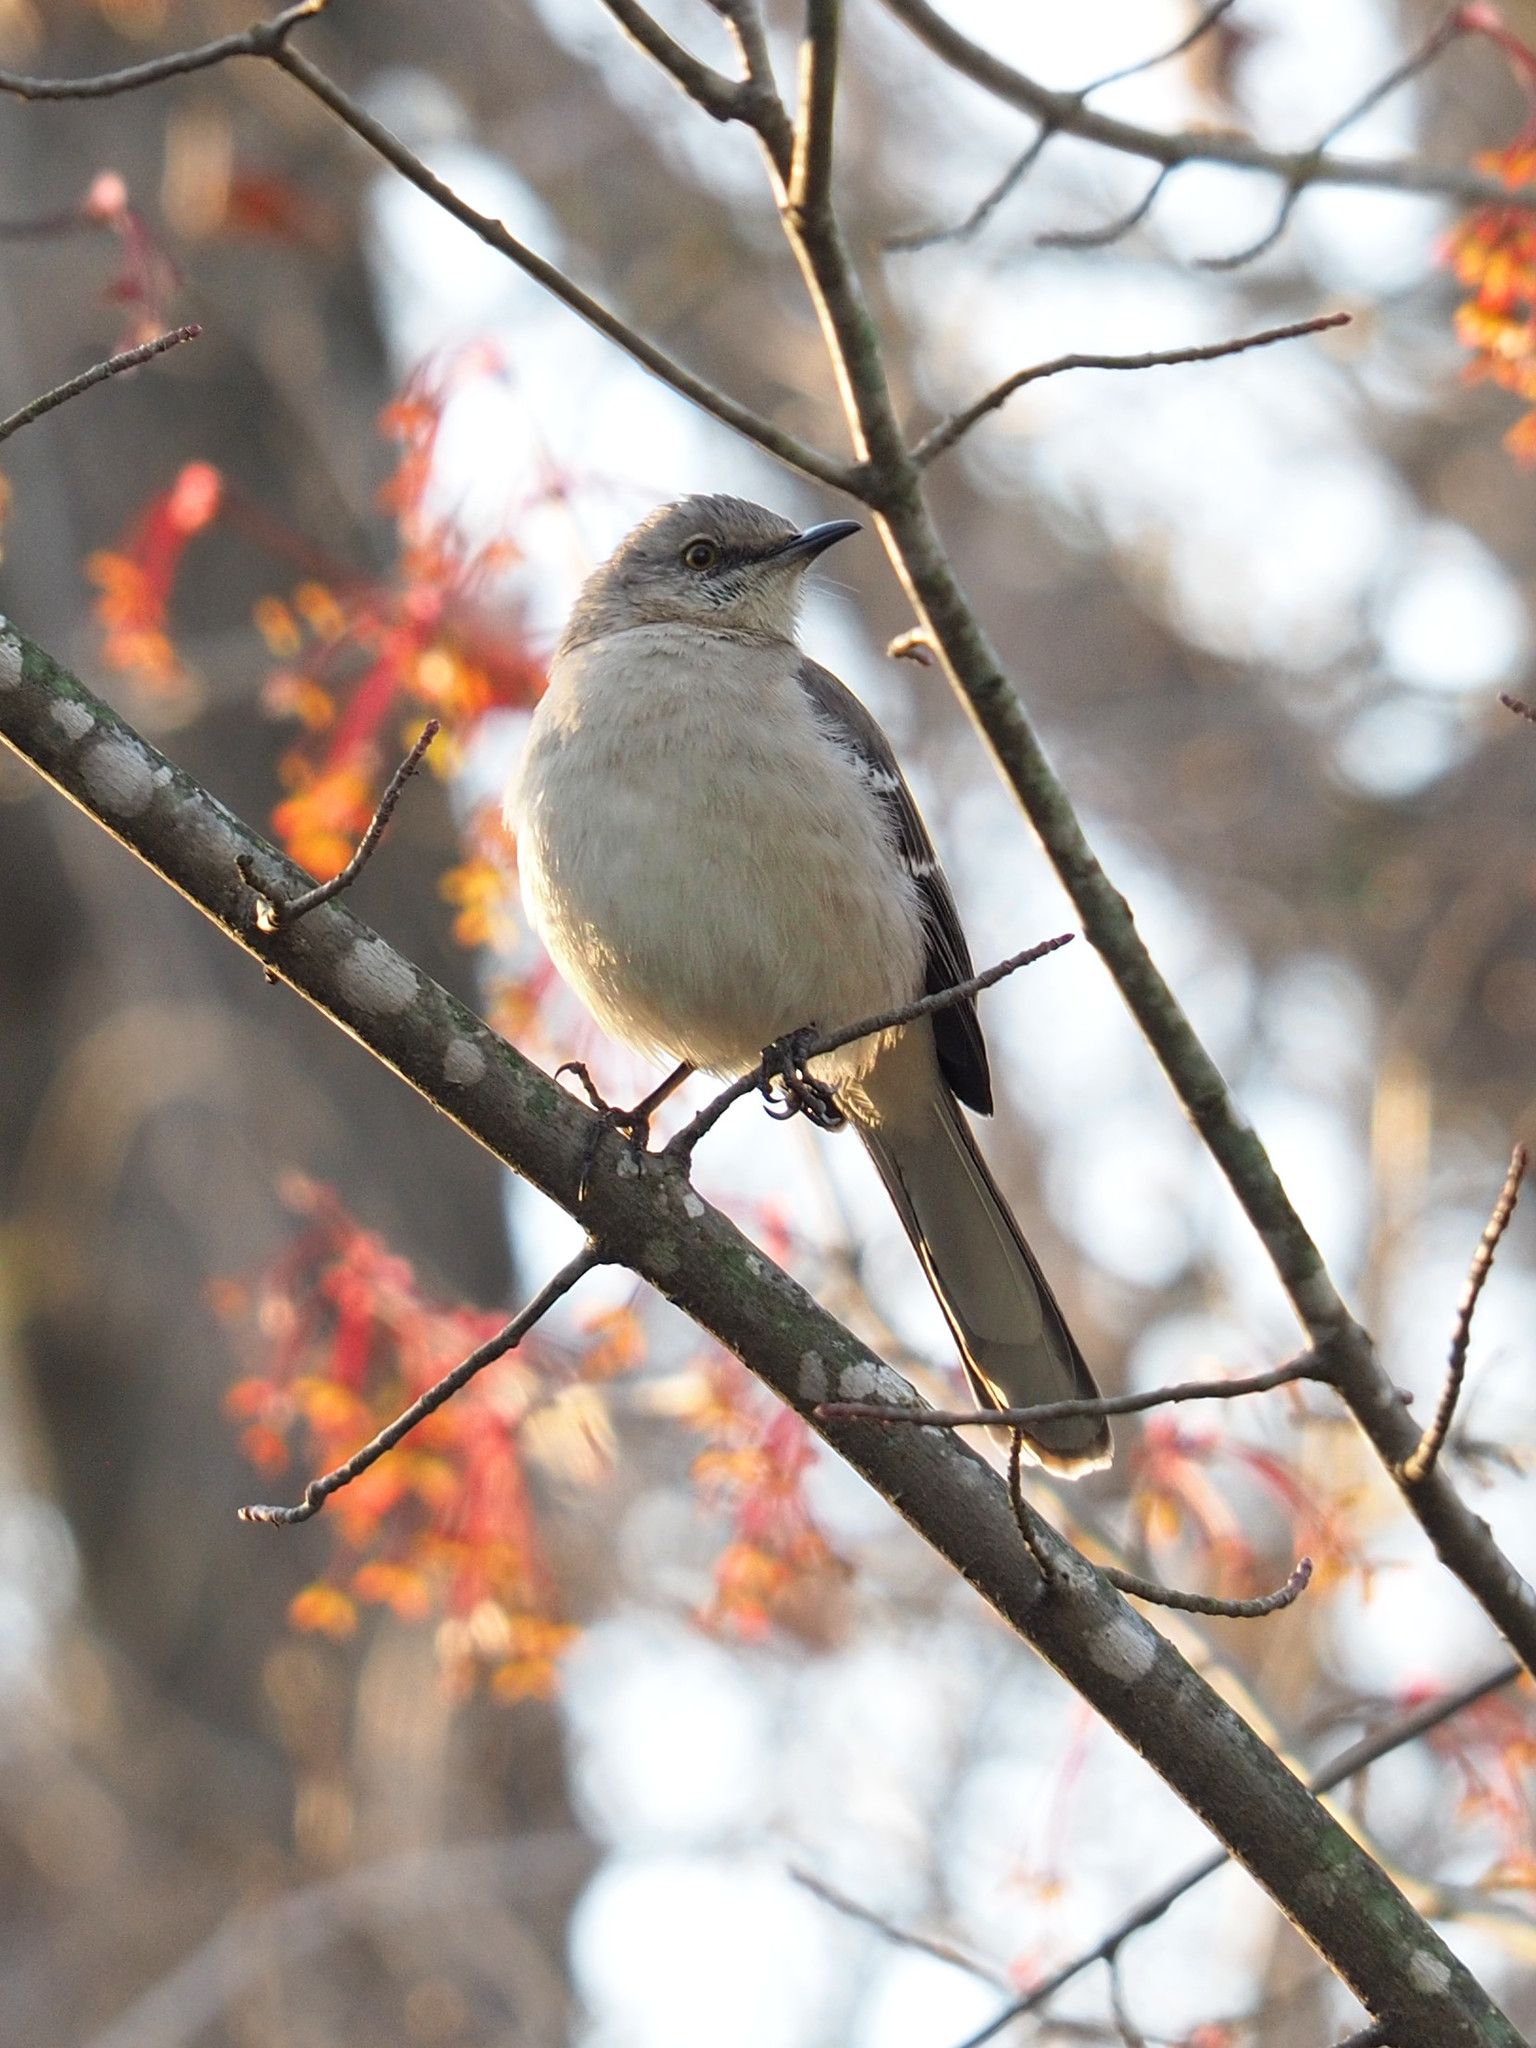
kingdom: Animalia
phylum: Chordata
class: Aves
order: Passeriformes
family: Mimidae
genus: Mimus
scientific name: Mimus polyglottos
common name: Northern mockingbird
